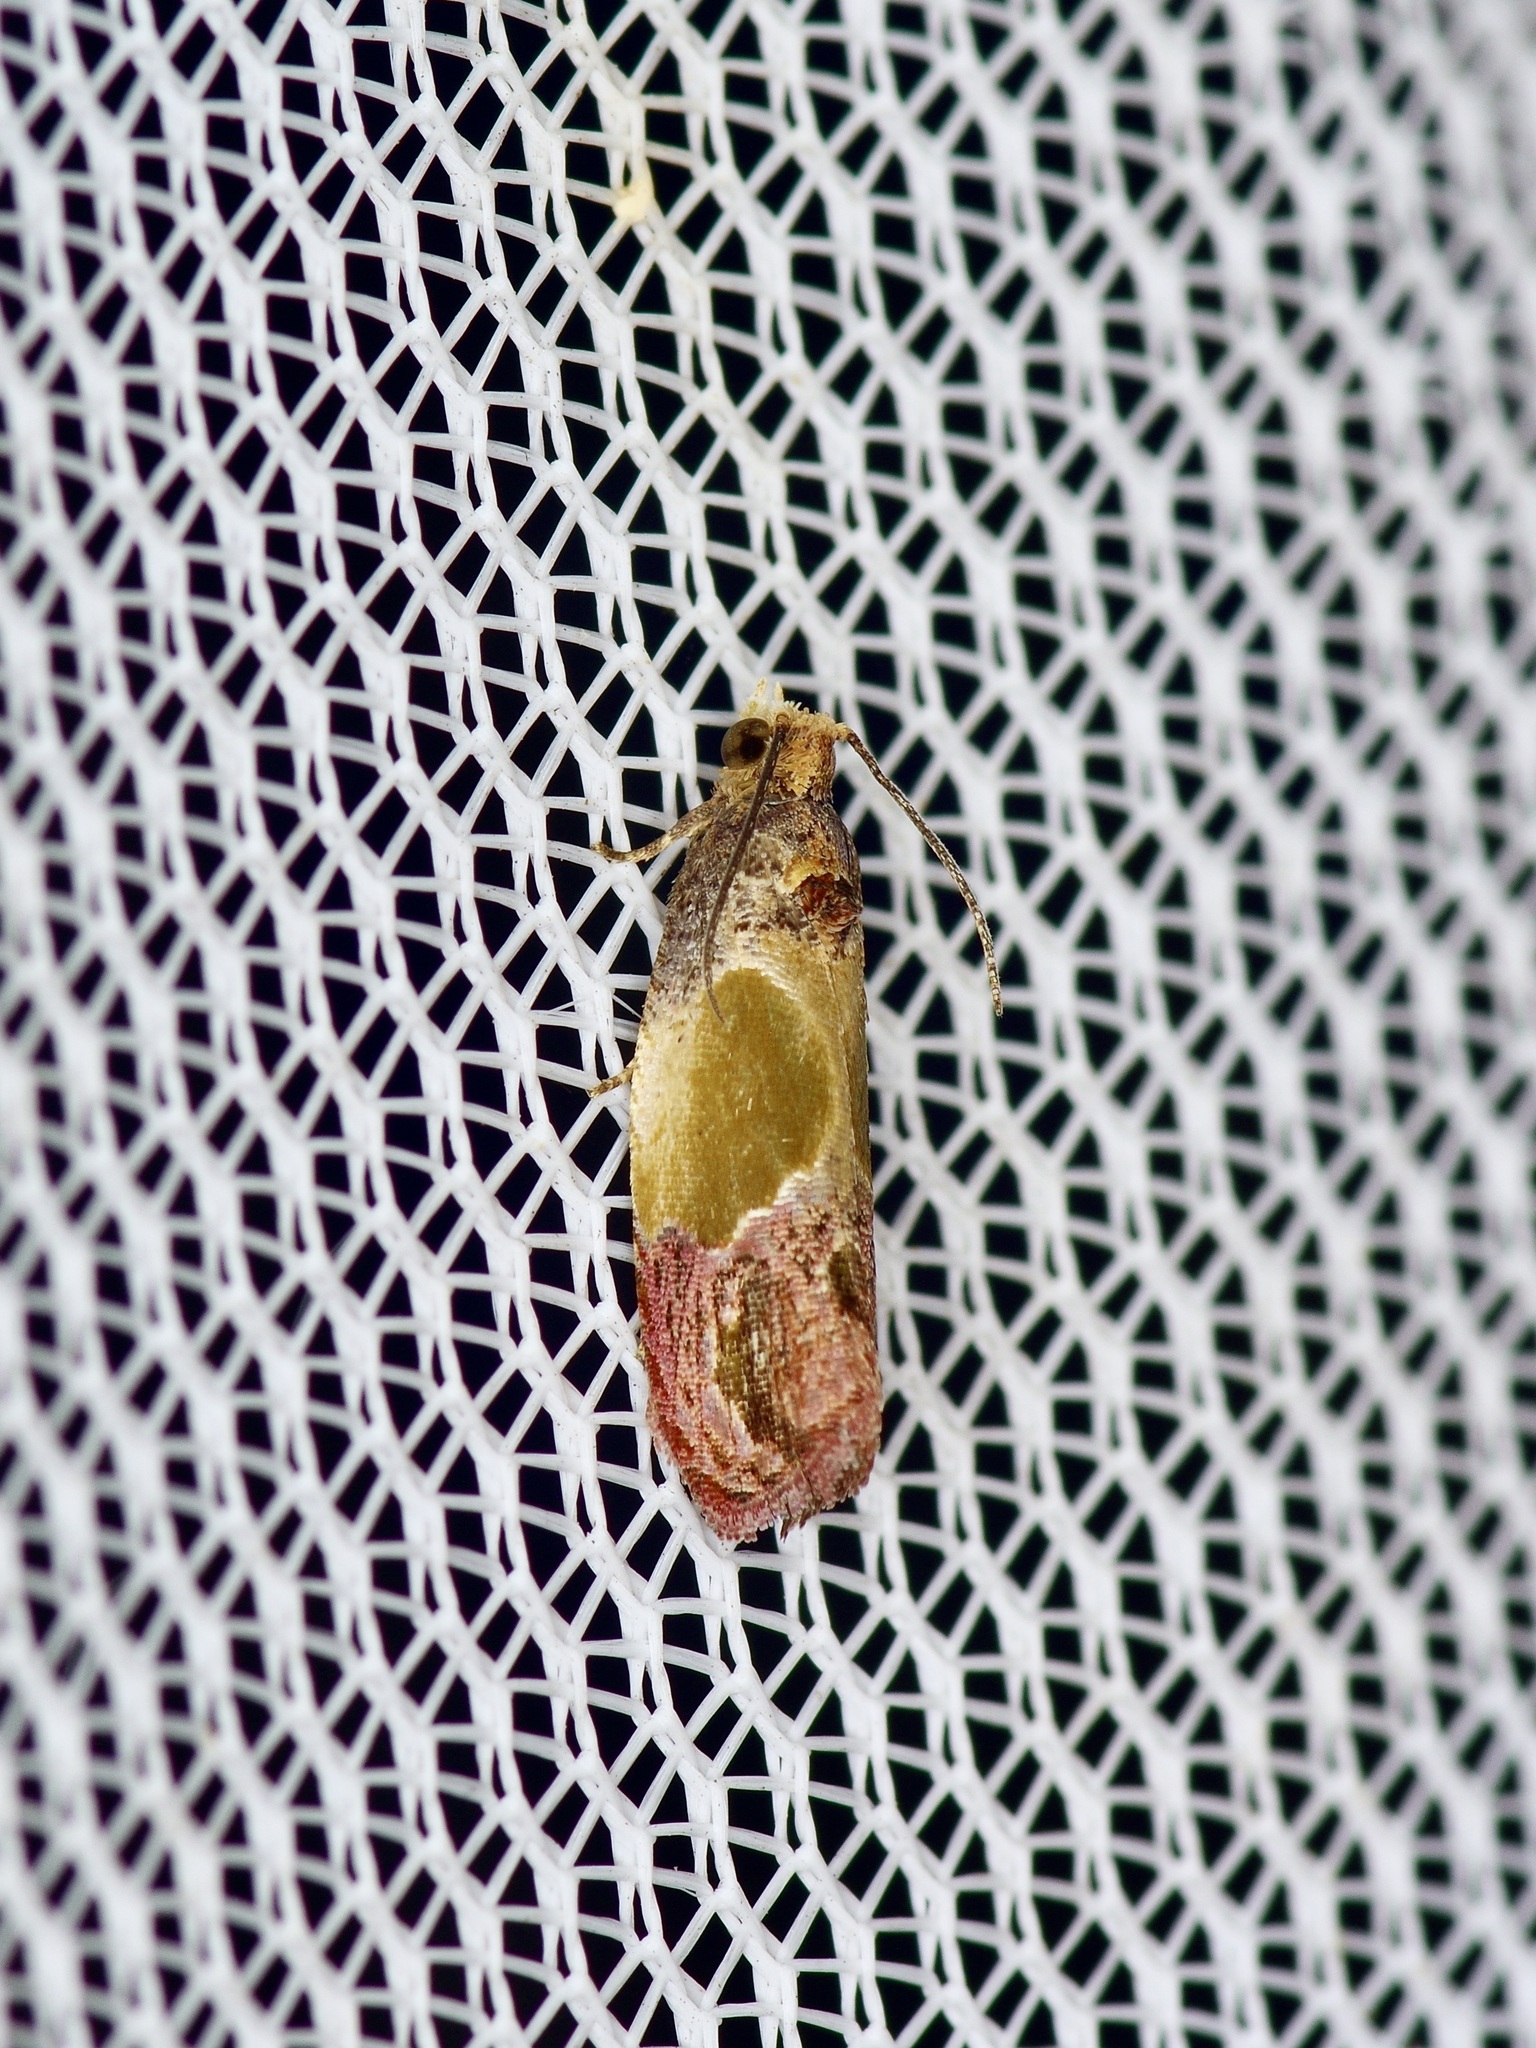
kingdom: Animalia
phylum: Arthropoda
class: Insecta
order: Lepidoptera
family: Tortricidae
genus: Eumarozia
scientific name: Eumarozia malachitana
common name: Sculptured moth
